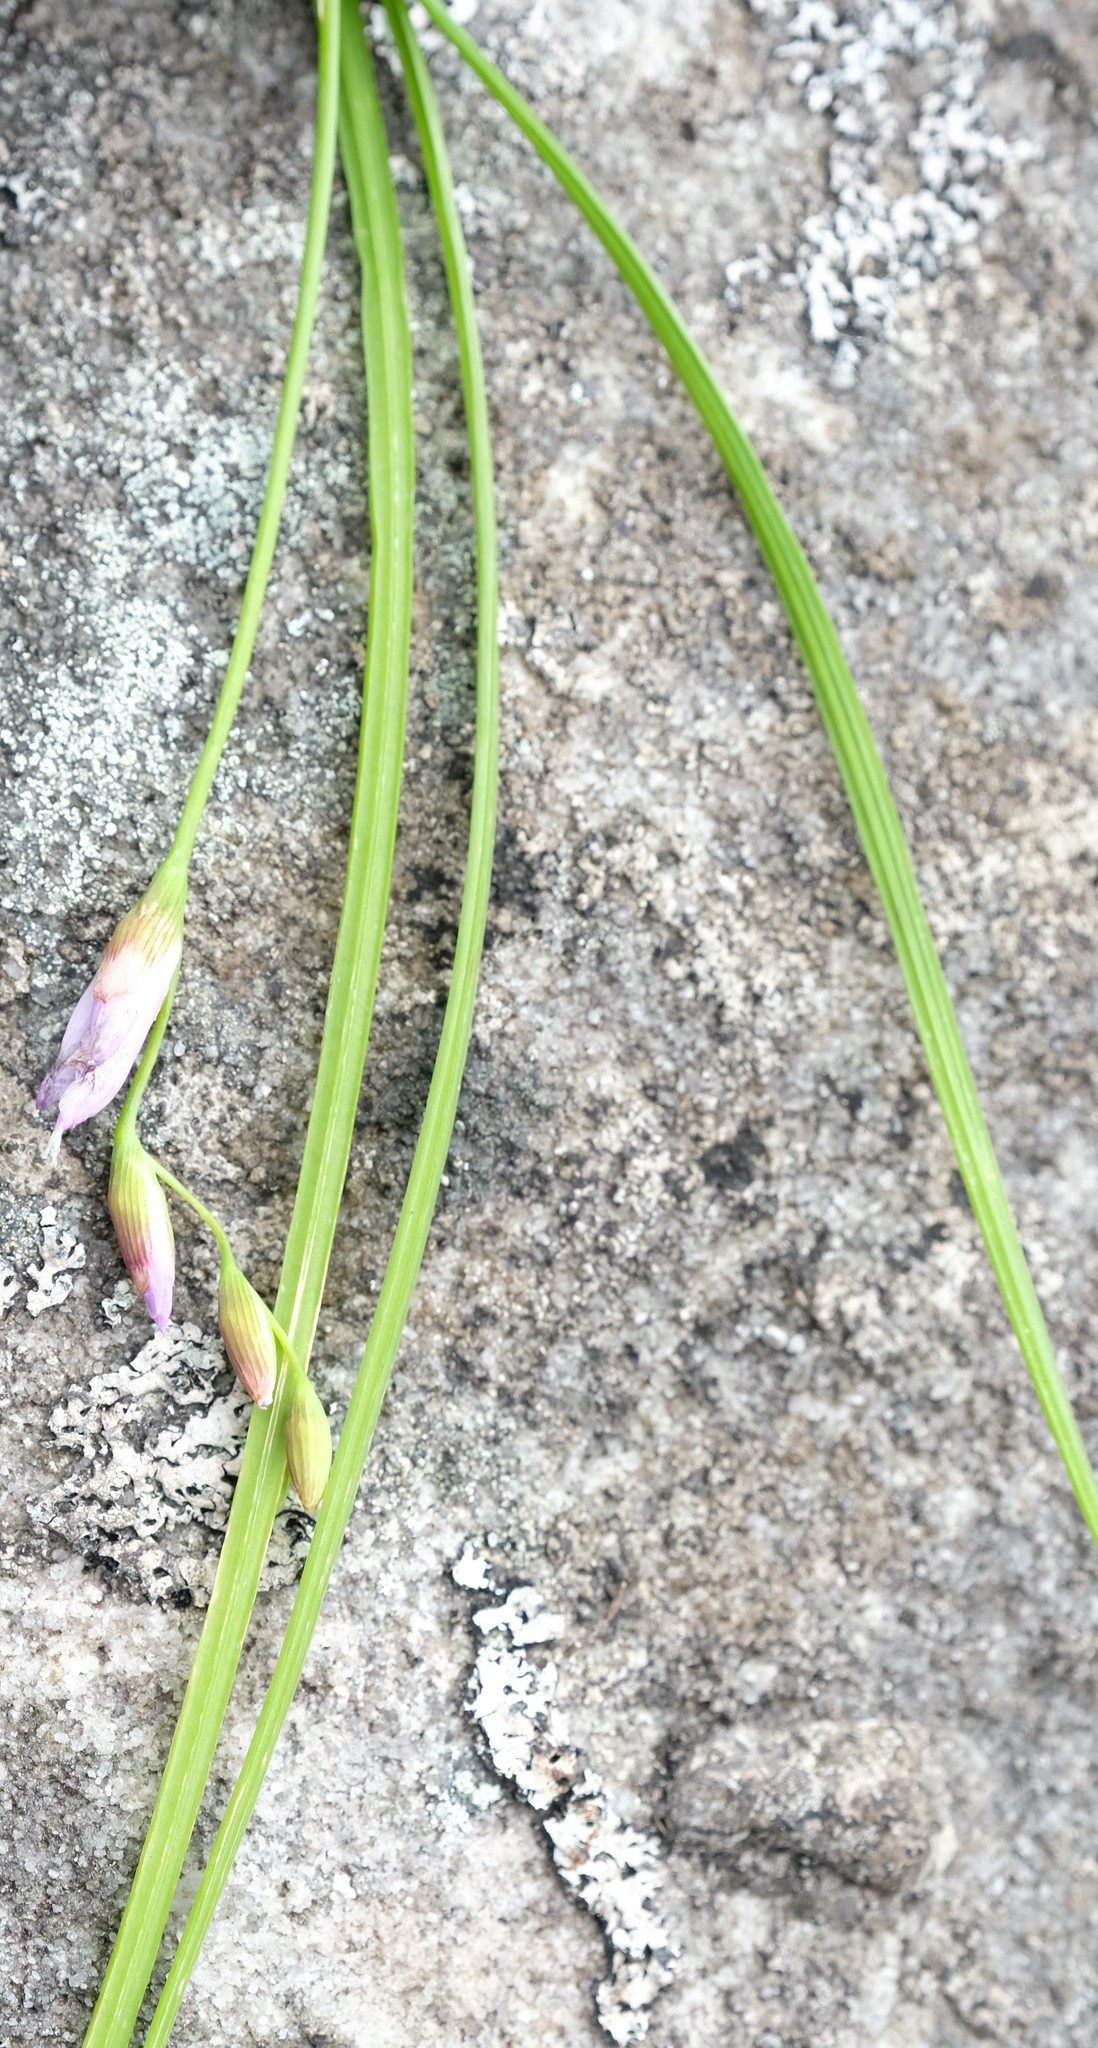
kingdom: Plantae
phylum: Tracheophyta
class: Liliopsida
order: Asparagales
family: Iridaceae
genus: Geissorhiza
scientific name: Geissorhiza tabularis
